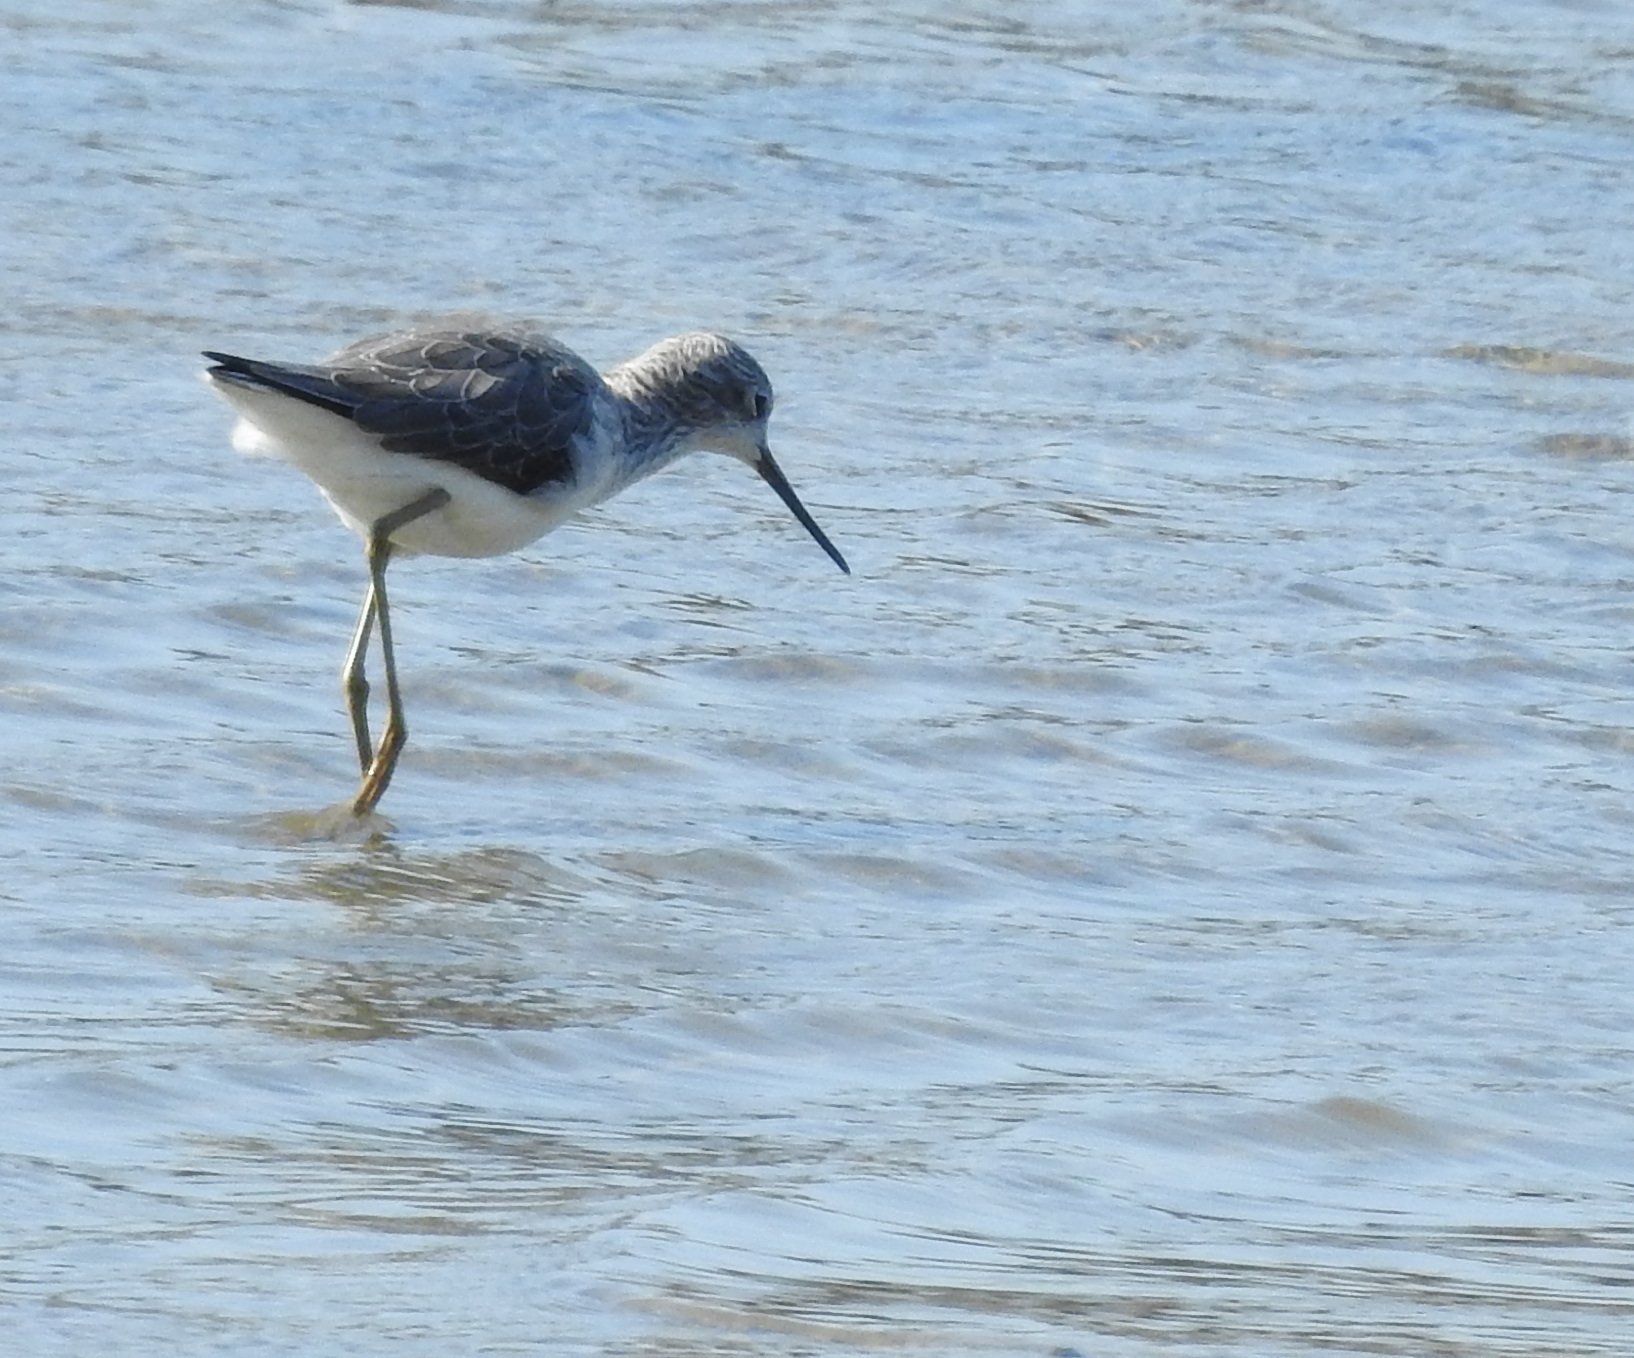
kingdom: Animalia
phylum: Chordata
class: Aves
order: Charadriiformes
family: Scolopacidae
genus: Tringa
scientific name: Tringa stagnatilis
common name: Marsh sandpiper
